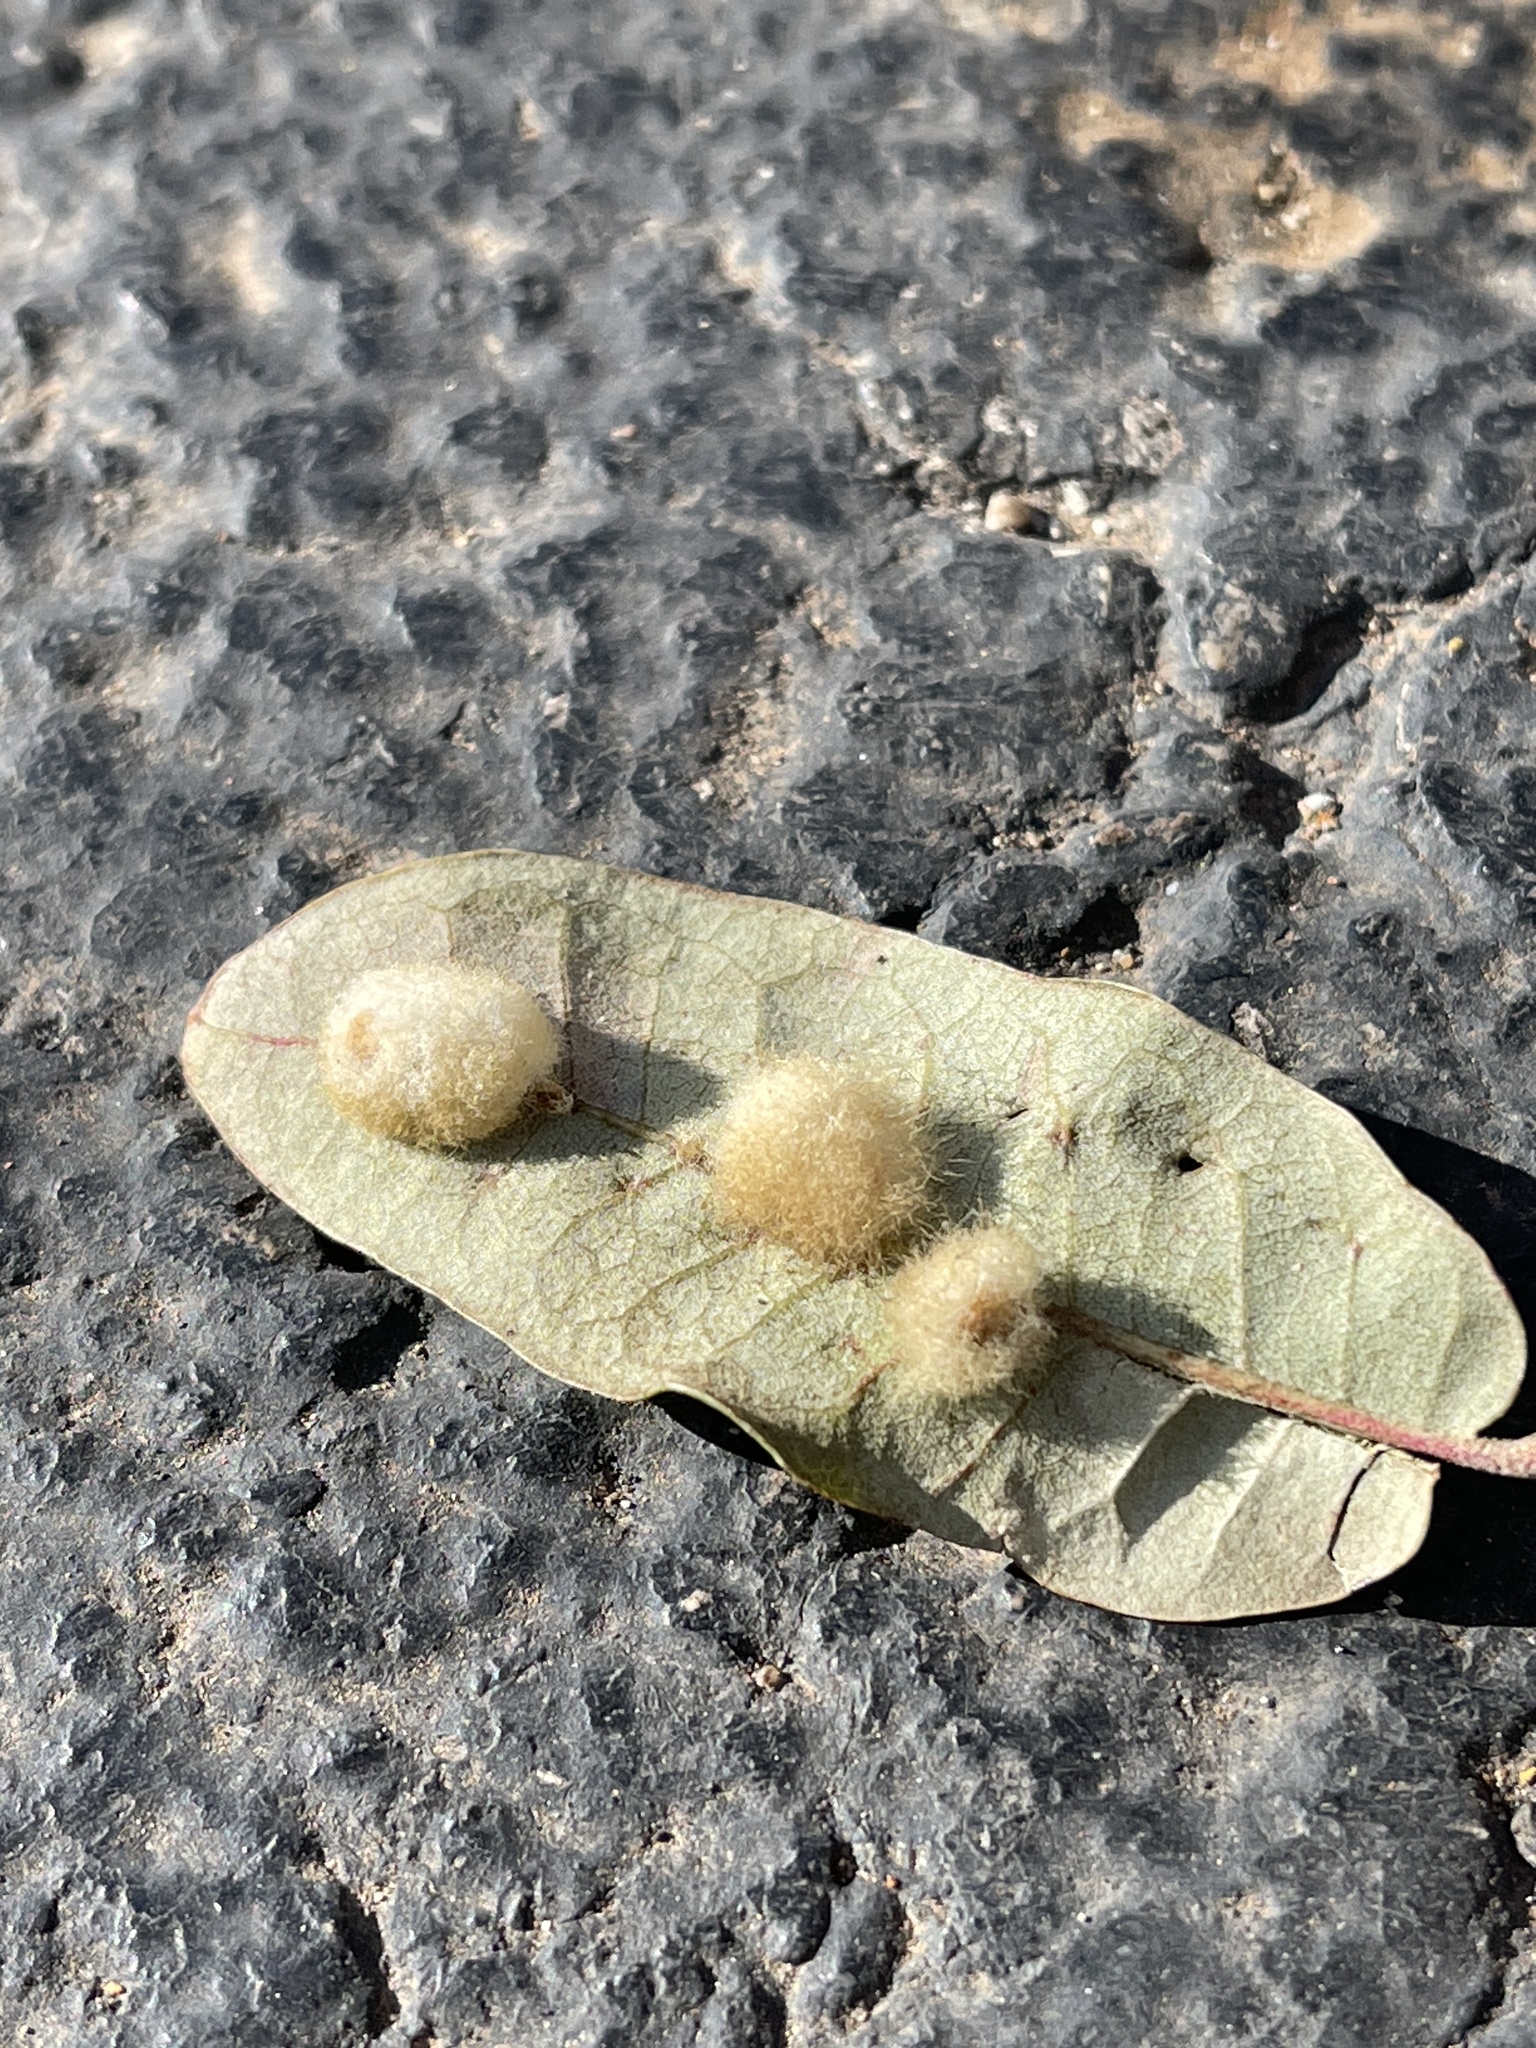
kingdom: Animalia
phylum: Arthropoda
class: Insecta
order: Hymenoptera
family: Cynipidae
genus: Andricus
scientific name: Andricus Druon quercuslanigerum
